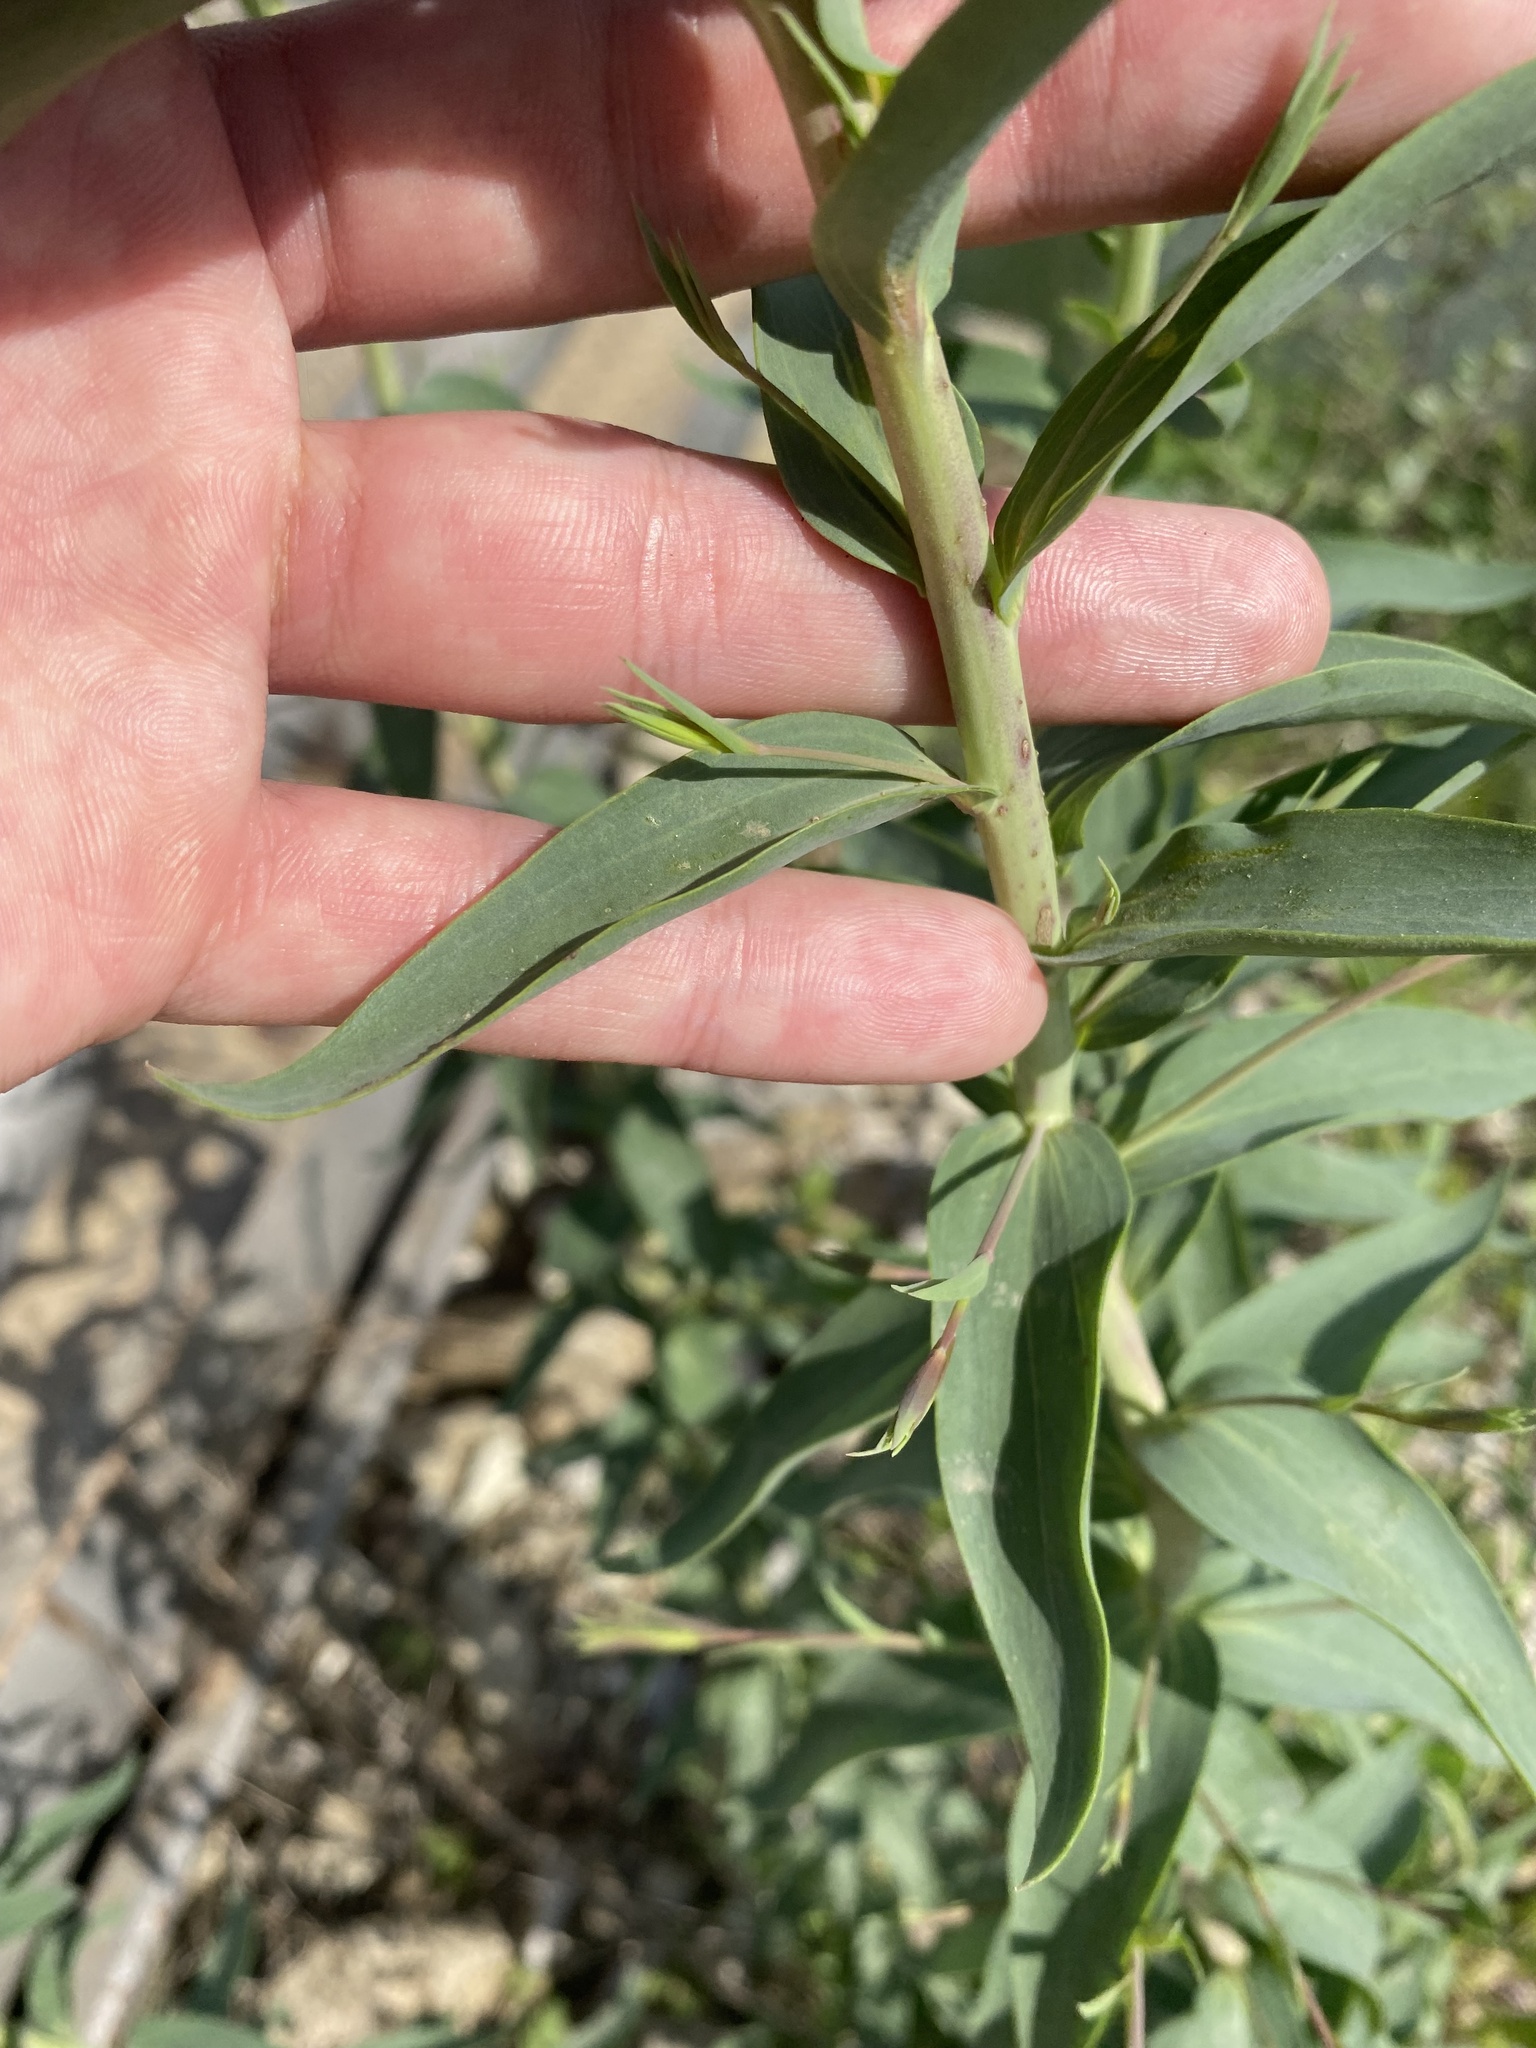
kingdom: Plantae
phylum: Tracheophyta
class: Magnoliopsida
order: Lamiales
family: Plantaginaceae
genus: Linaria
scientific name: Linaria genistifolia
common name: Broomleaf toadflax
